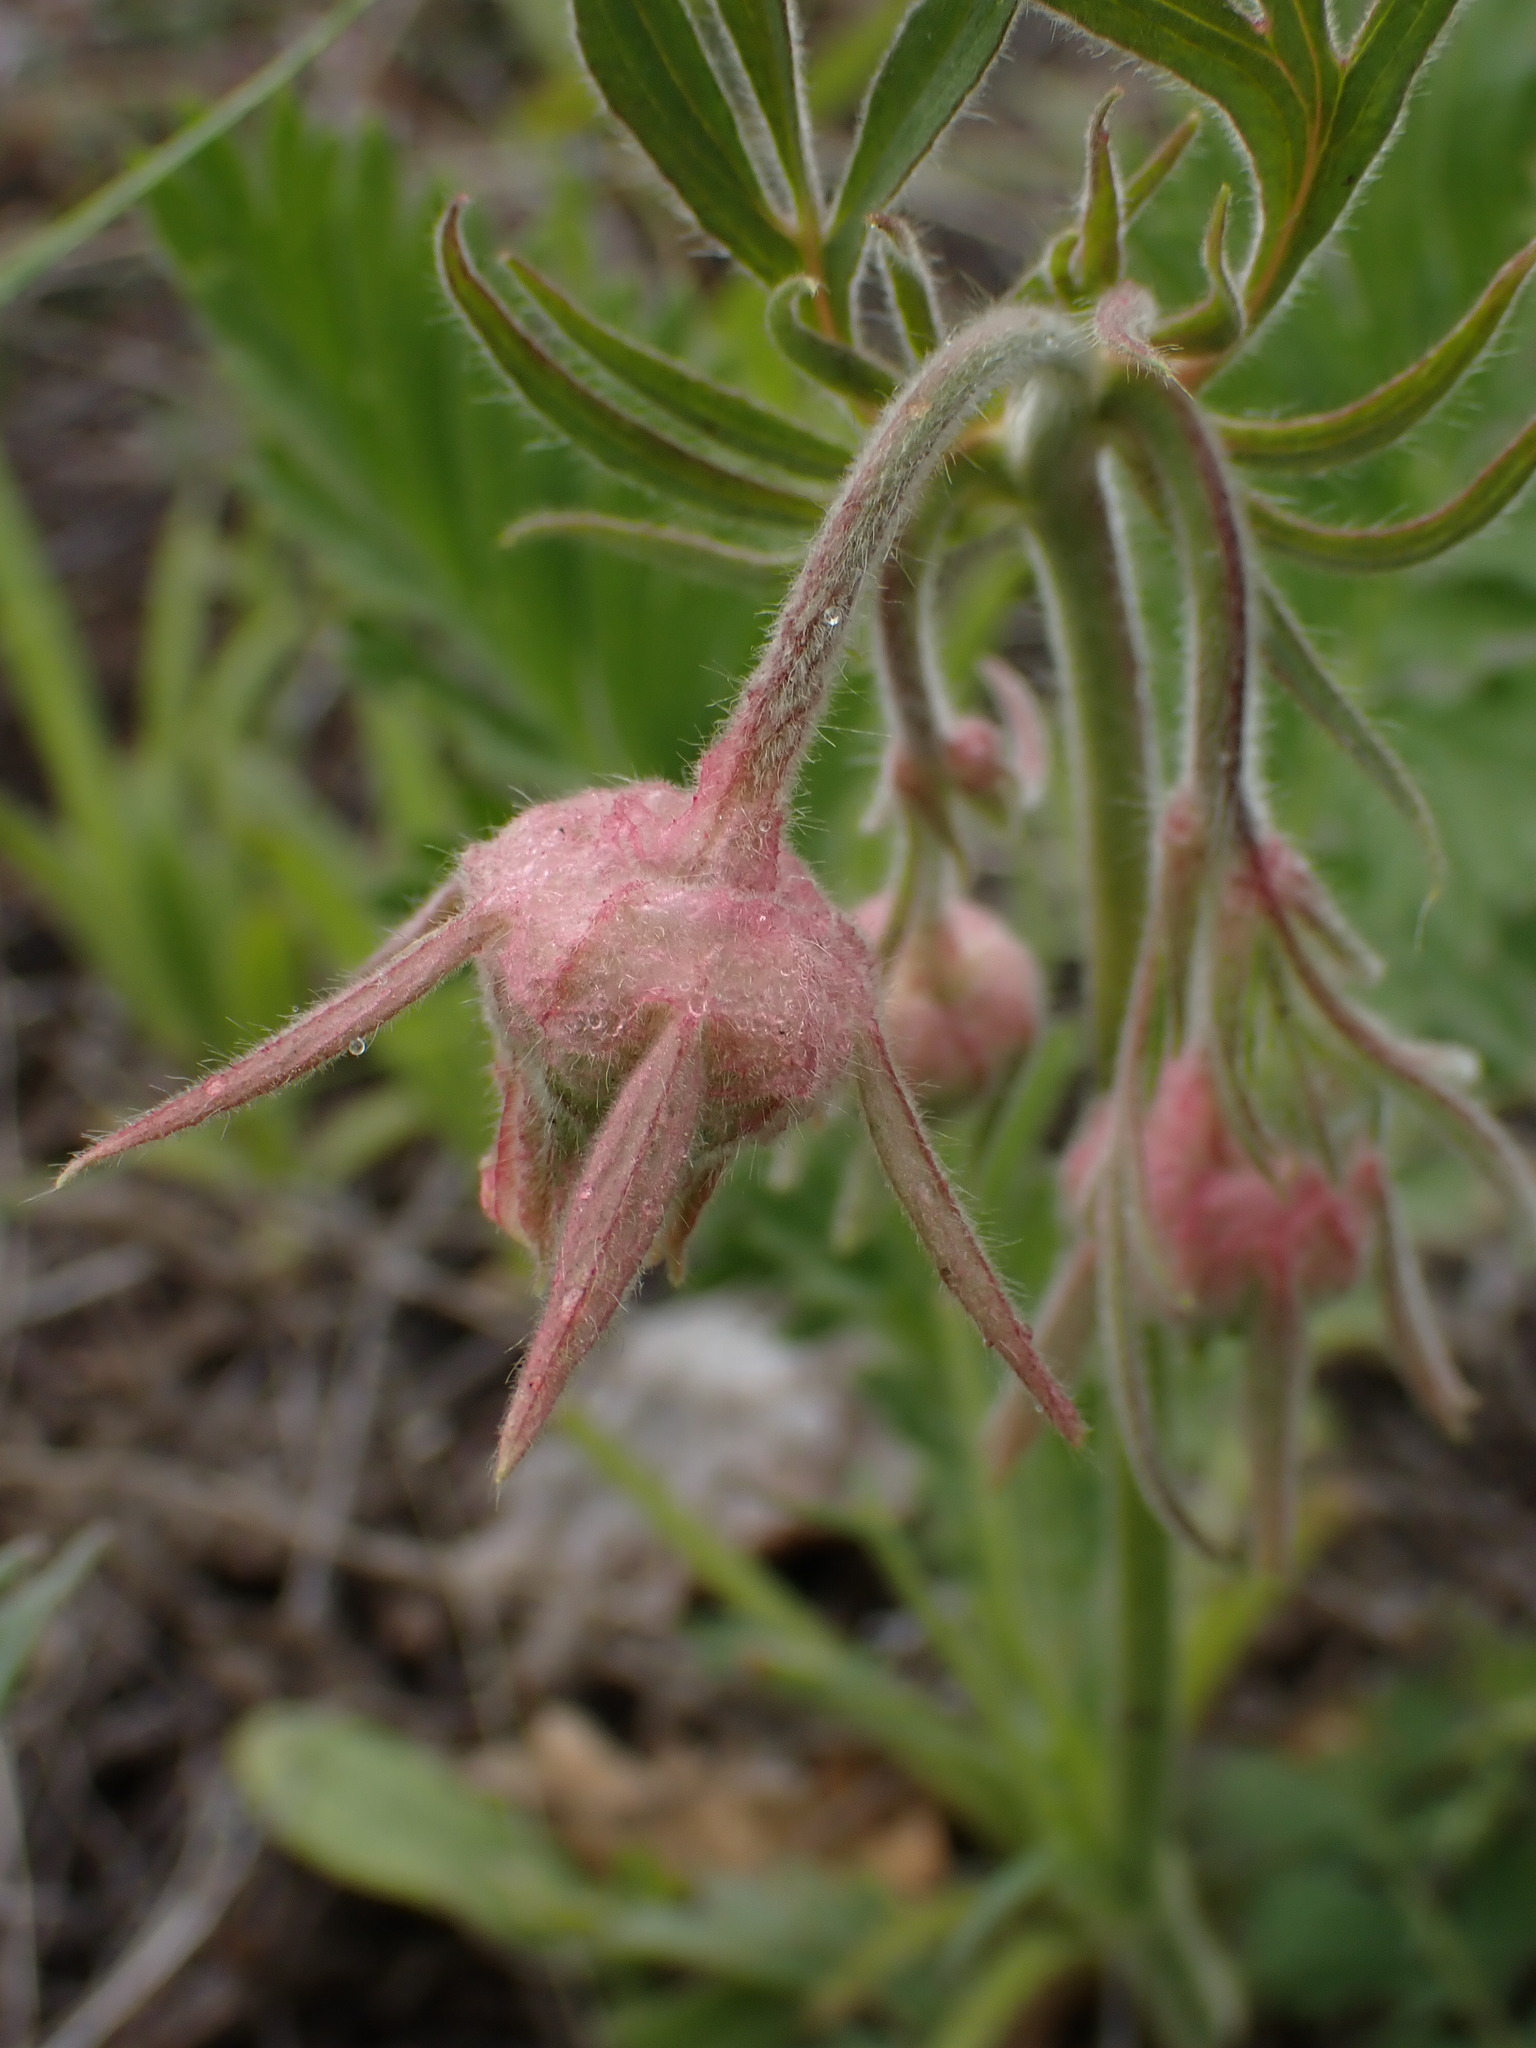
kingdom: Plantae
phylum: Tracheophyta
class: Magnoliopsida
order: Rosales
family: Rosaceae
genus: Geum
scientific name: Geum triflorum
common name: Old man's whiskers
